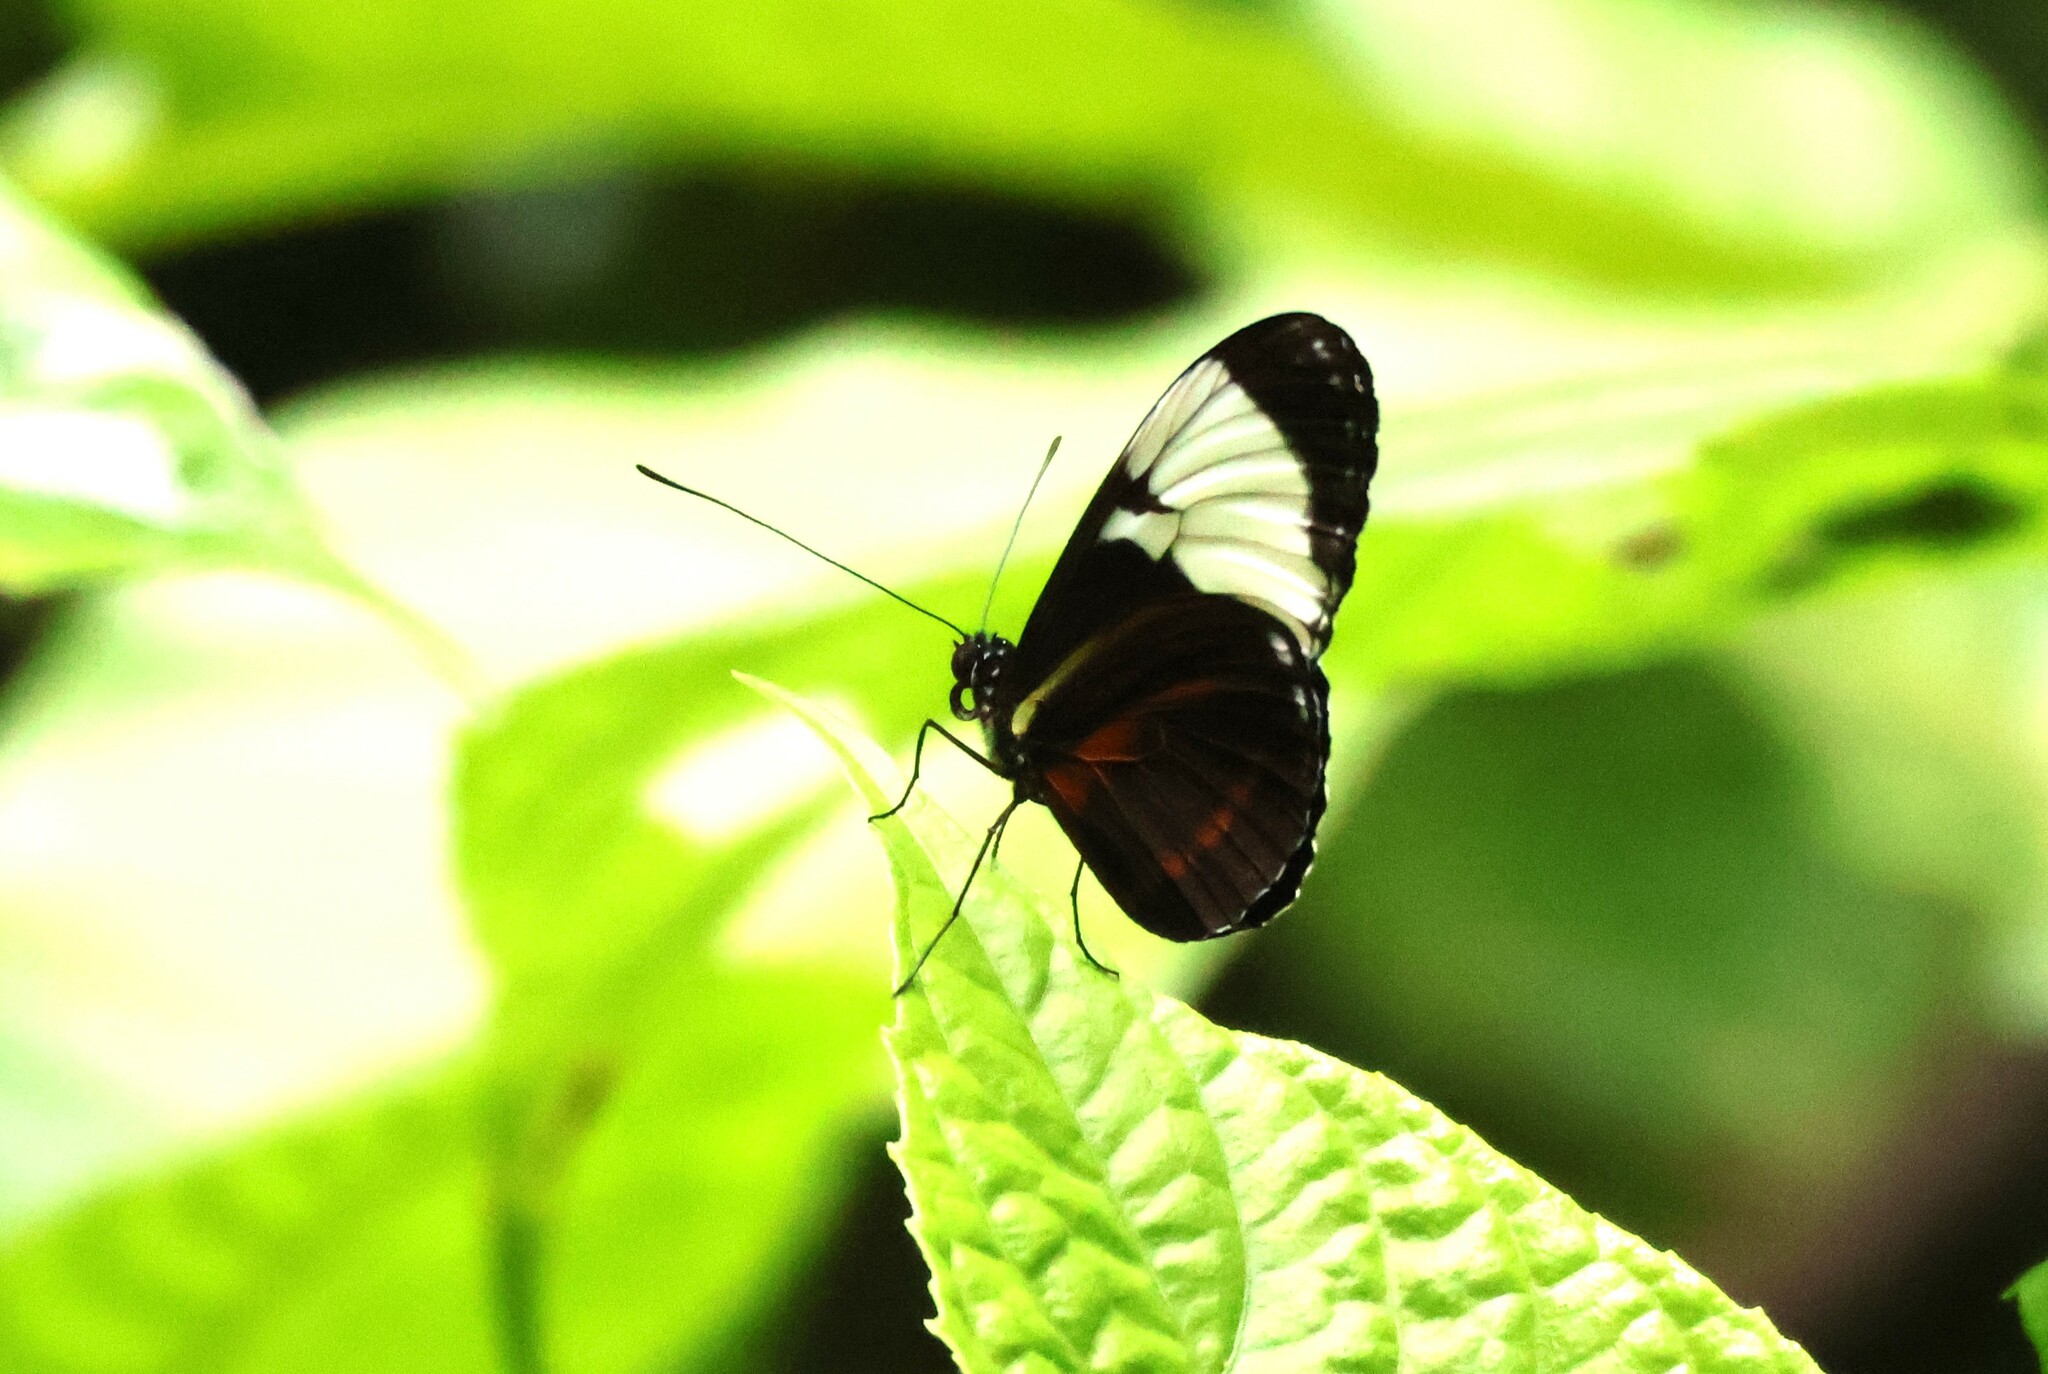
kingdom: Animalia
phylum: Arthropoda
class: Insecta
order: Lepidoptera
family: Nymphalidae
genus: Heliconius
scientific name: Heliconius cydno
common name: Cydno longwing
